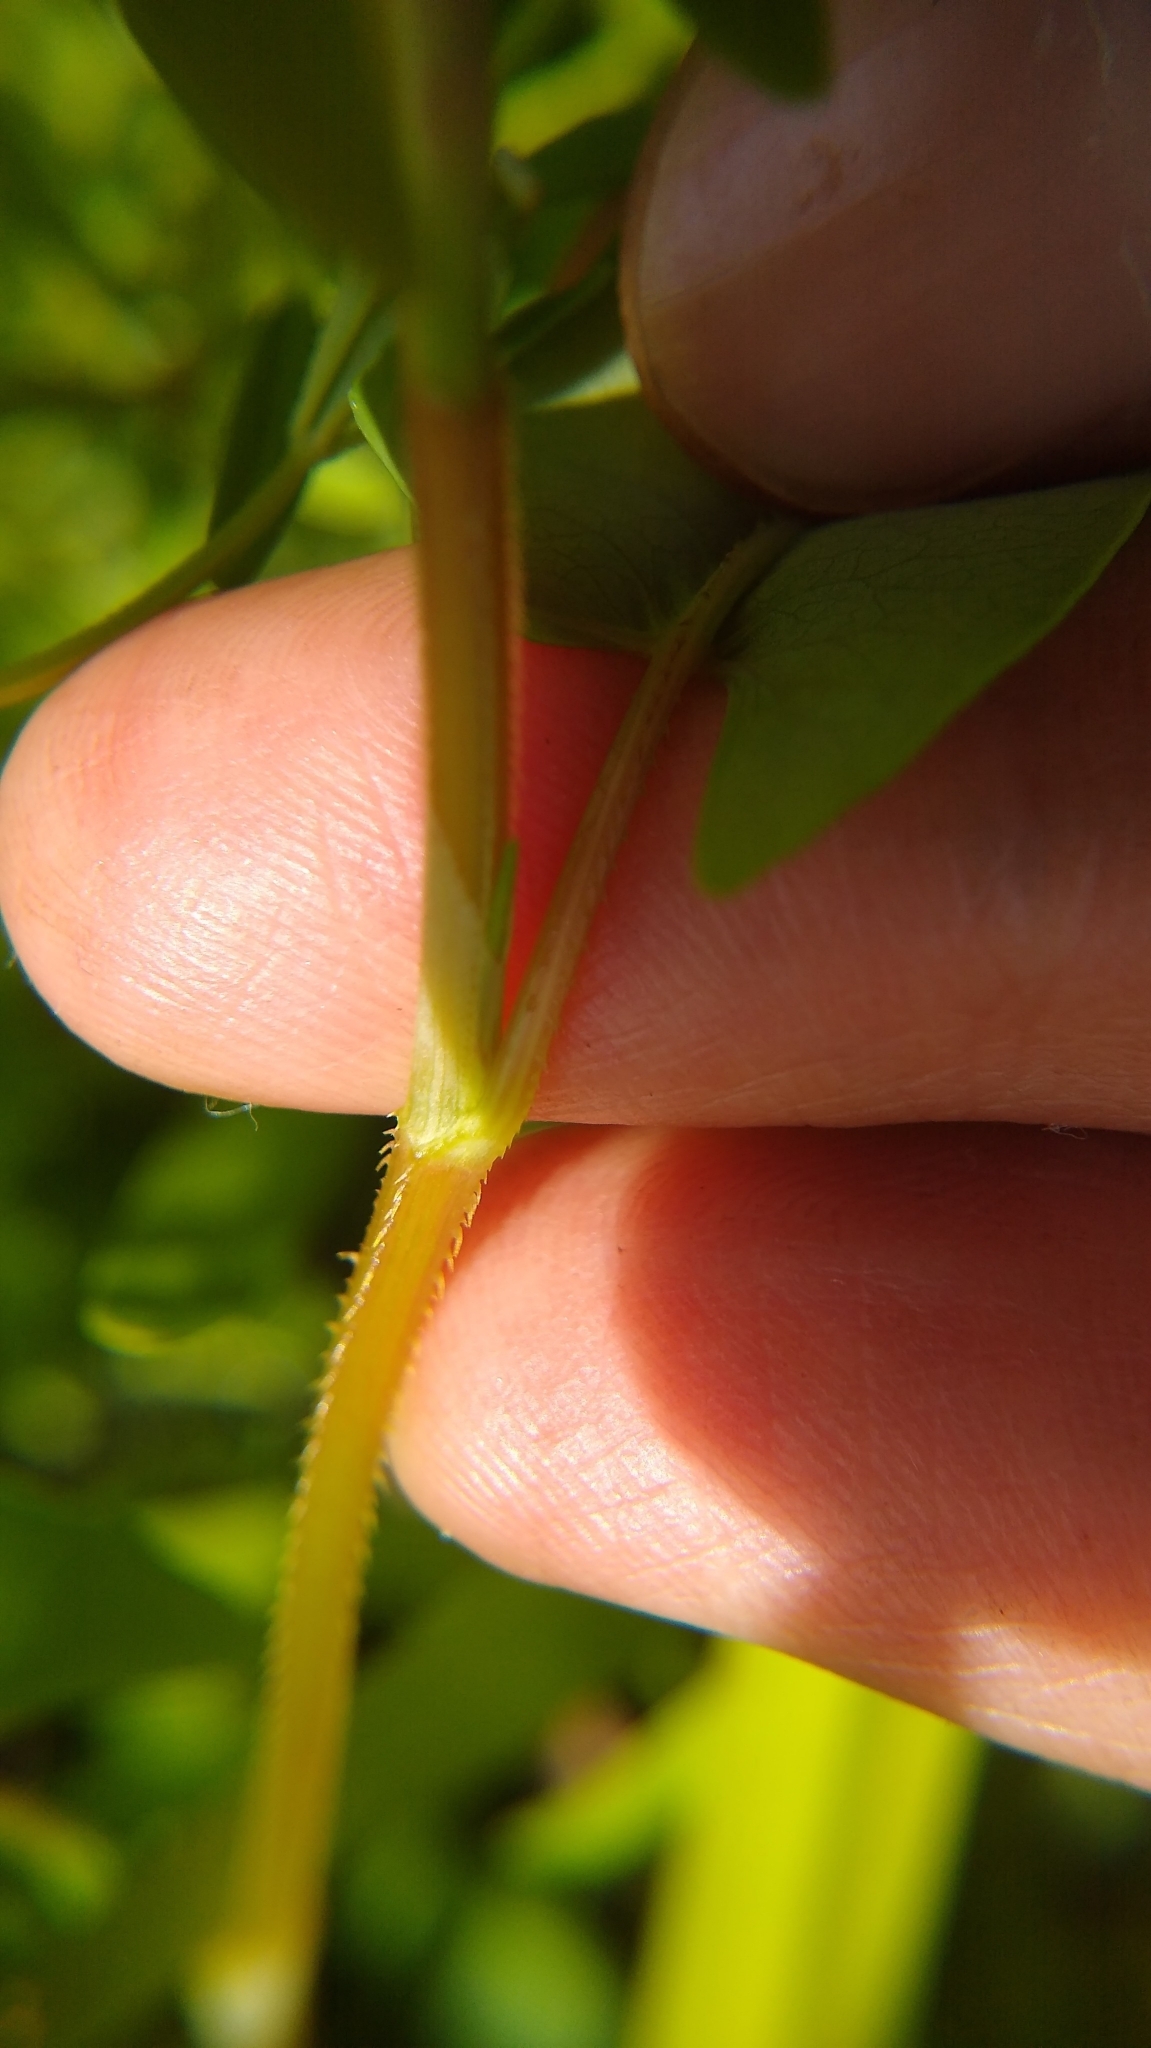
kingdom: Plantae
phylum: Tracheophyta
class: Magnoliopsida
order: Caryophyllales
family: Polygonaceae
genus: Persicaria
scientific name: Persicaria sagittata
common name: American tearthumb
